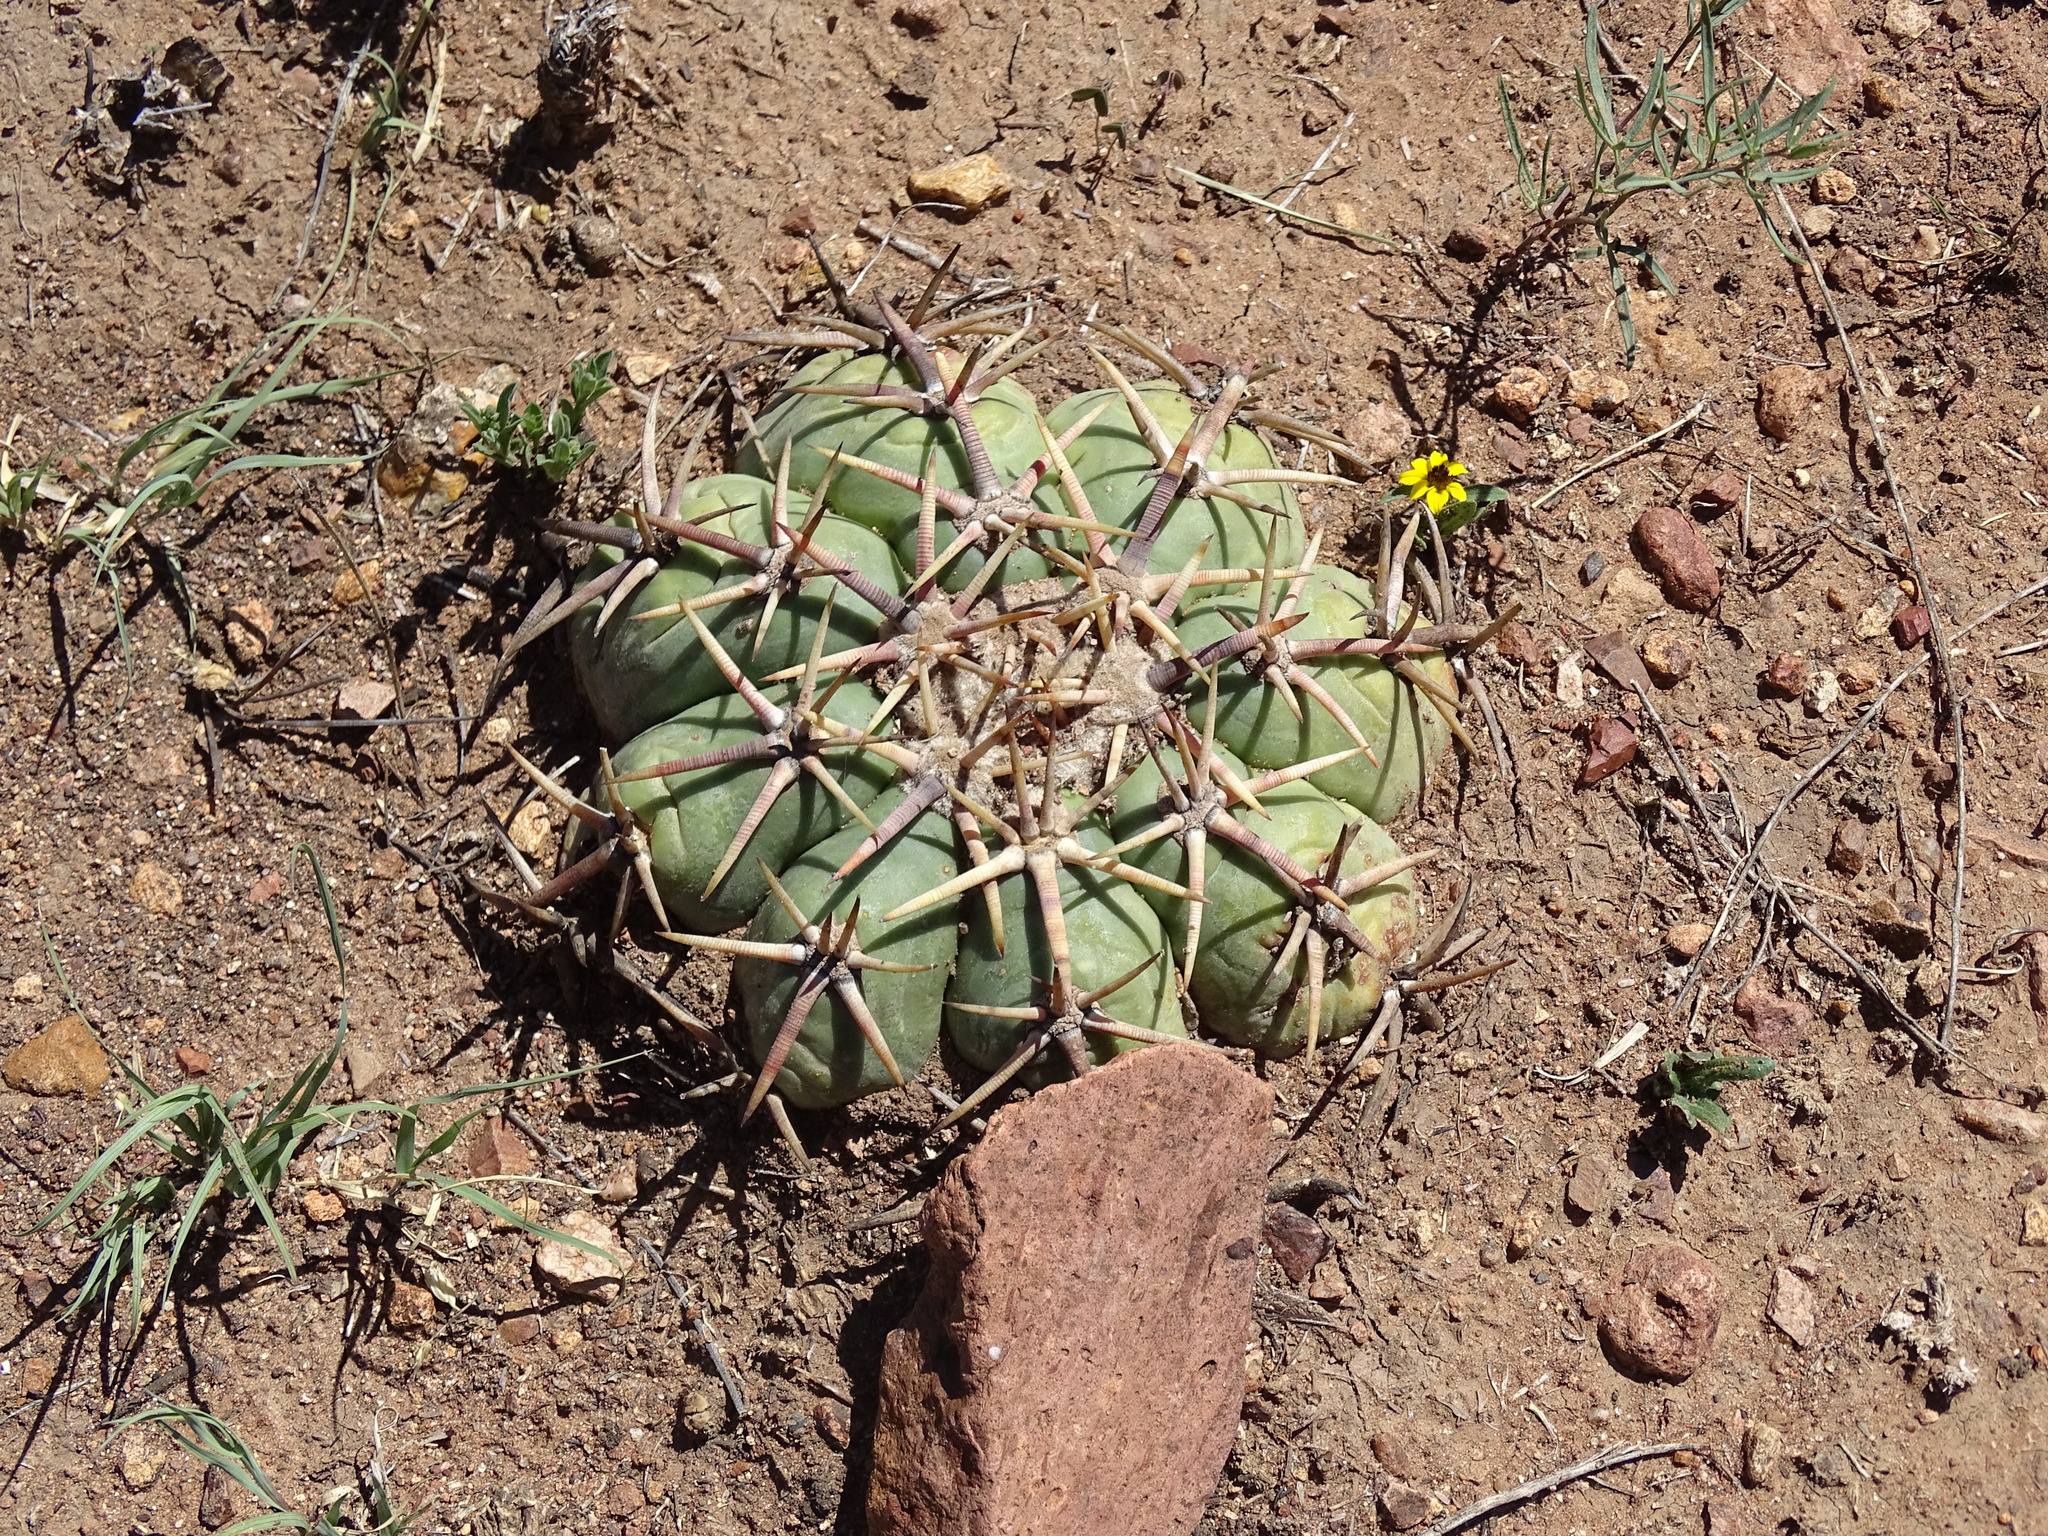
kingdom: Plantae
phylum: Tracheophyta
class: Magnoliopsida
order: Caryophyllales
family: Cactaceae
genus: Echinocactus
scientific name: Echinocactus horizonthalonius
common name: Devilshead
